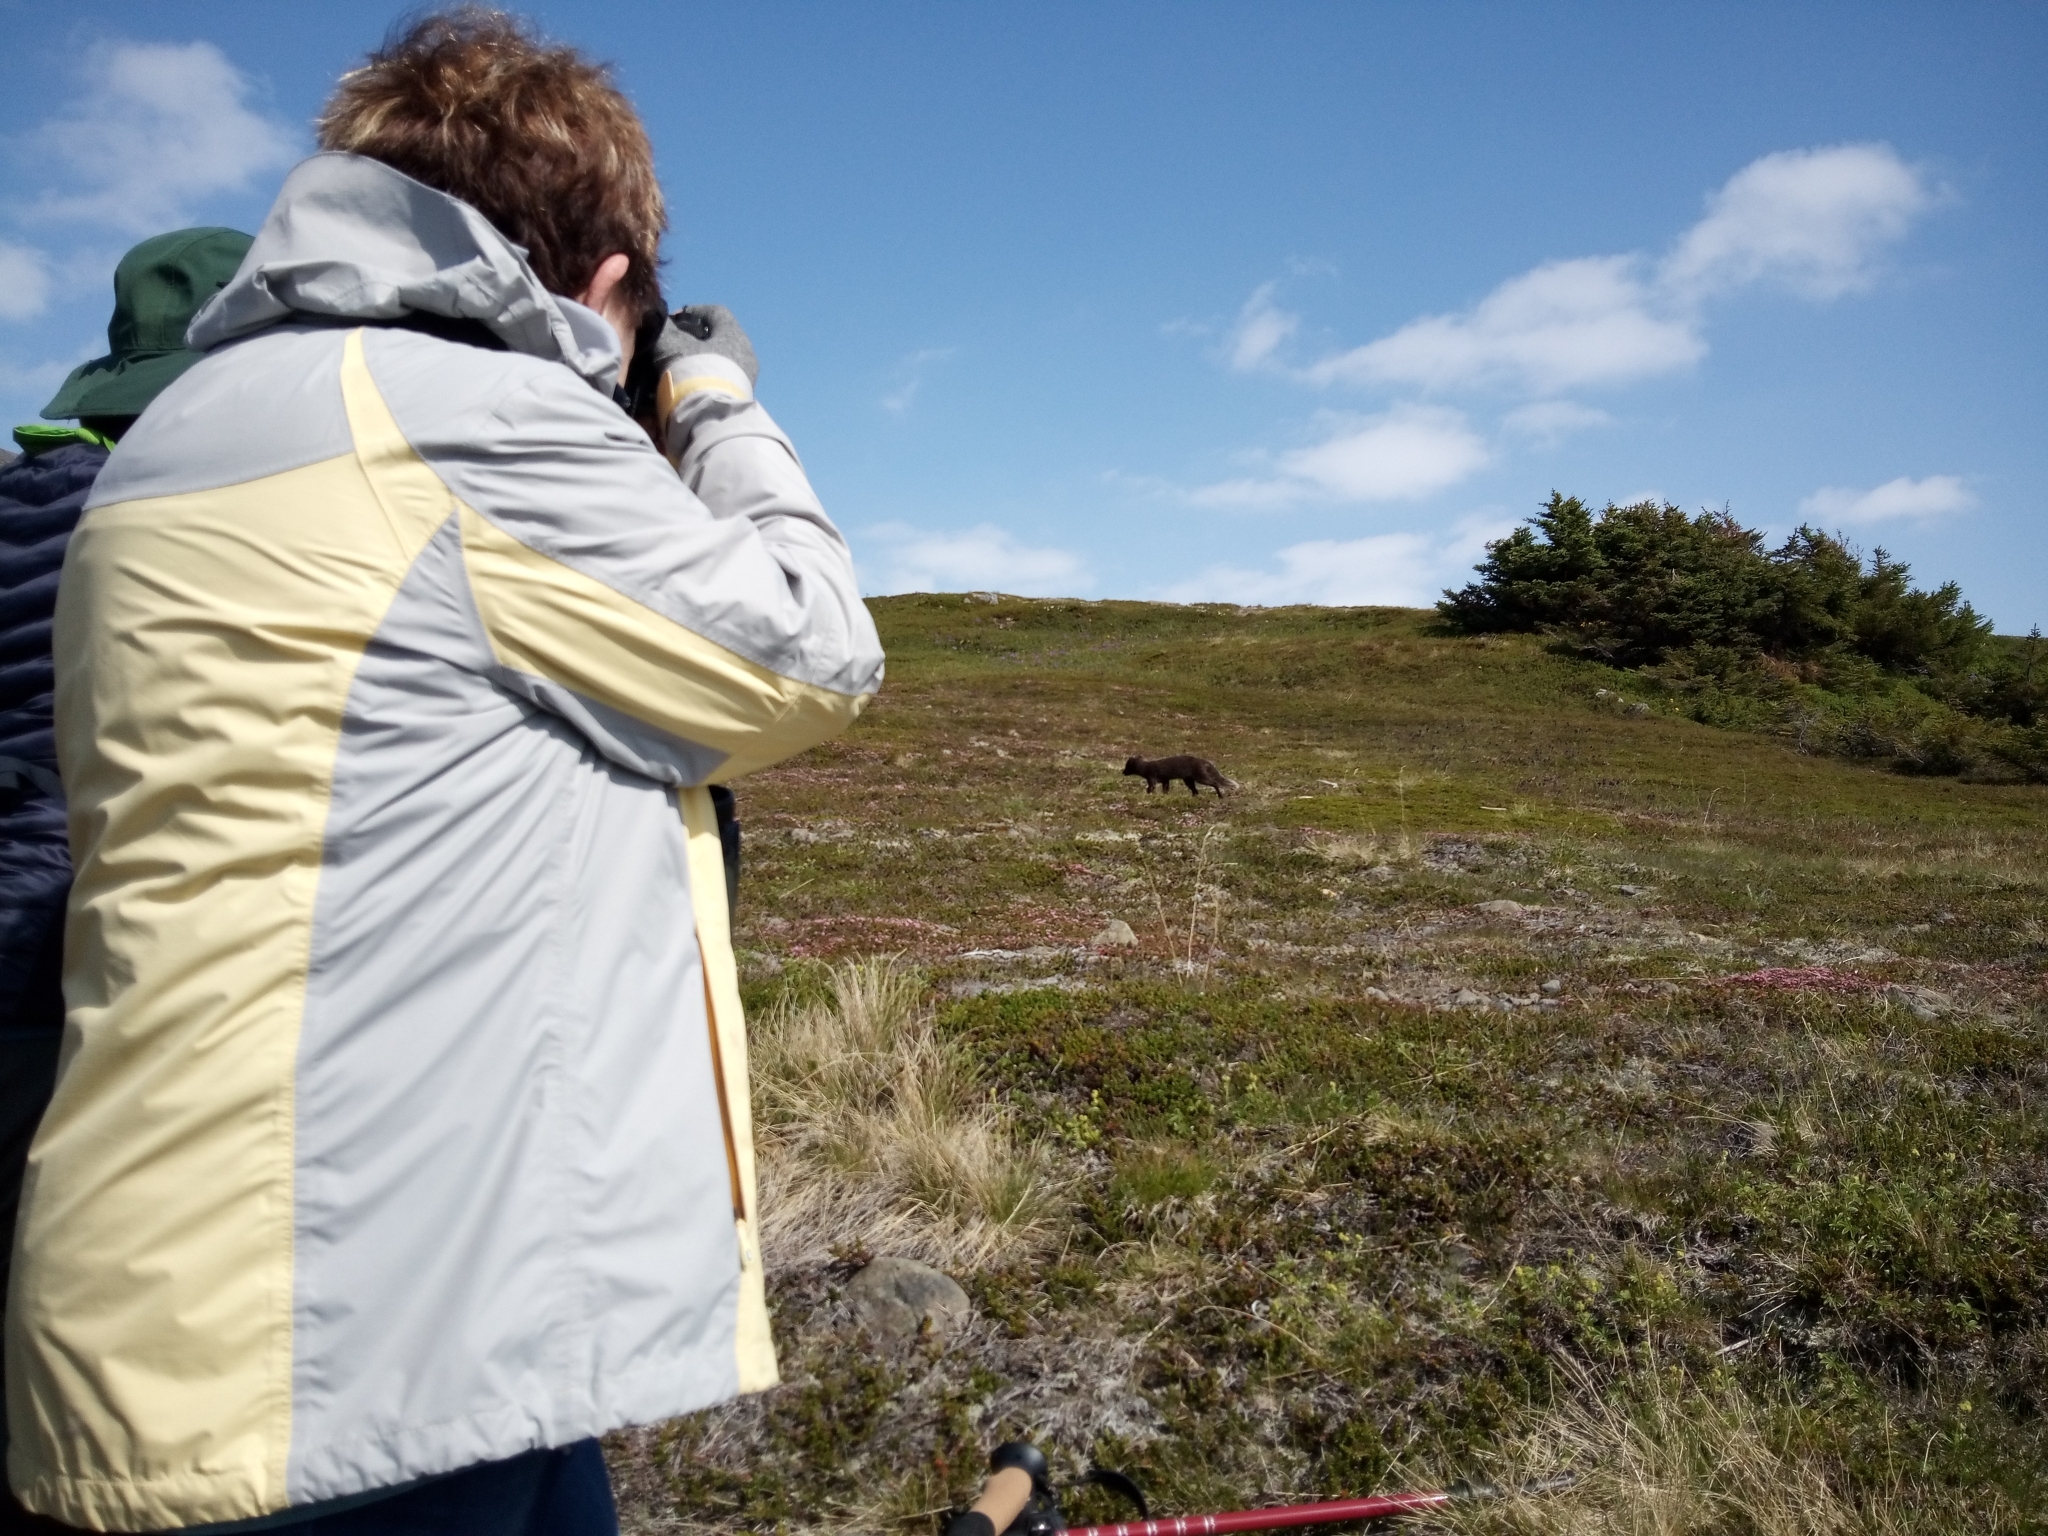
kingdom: Animalia
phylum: Chordata
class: Mammalia
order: Carnivora
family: Canidae
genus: Vulpes
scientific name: Vulpes lagopus
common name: Arctic fox
